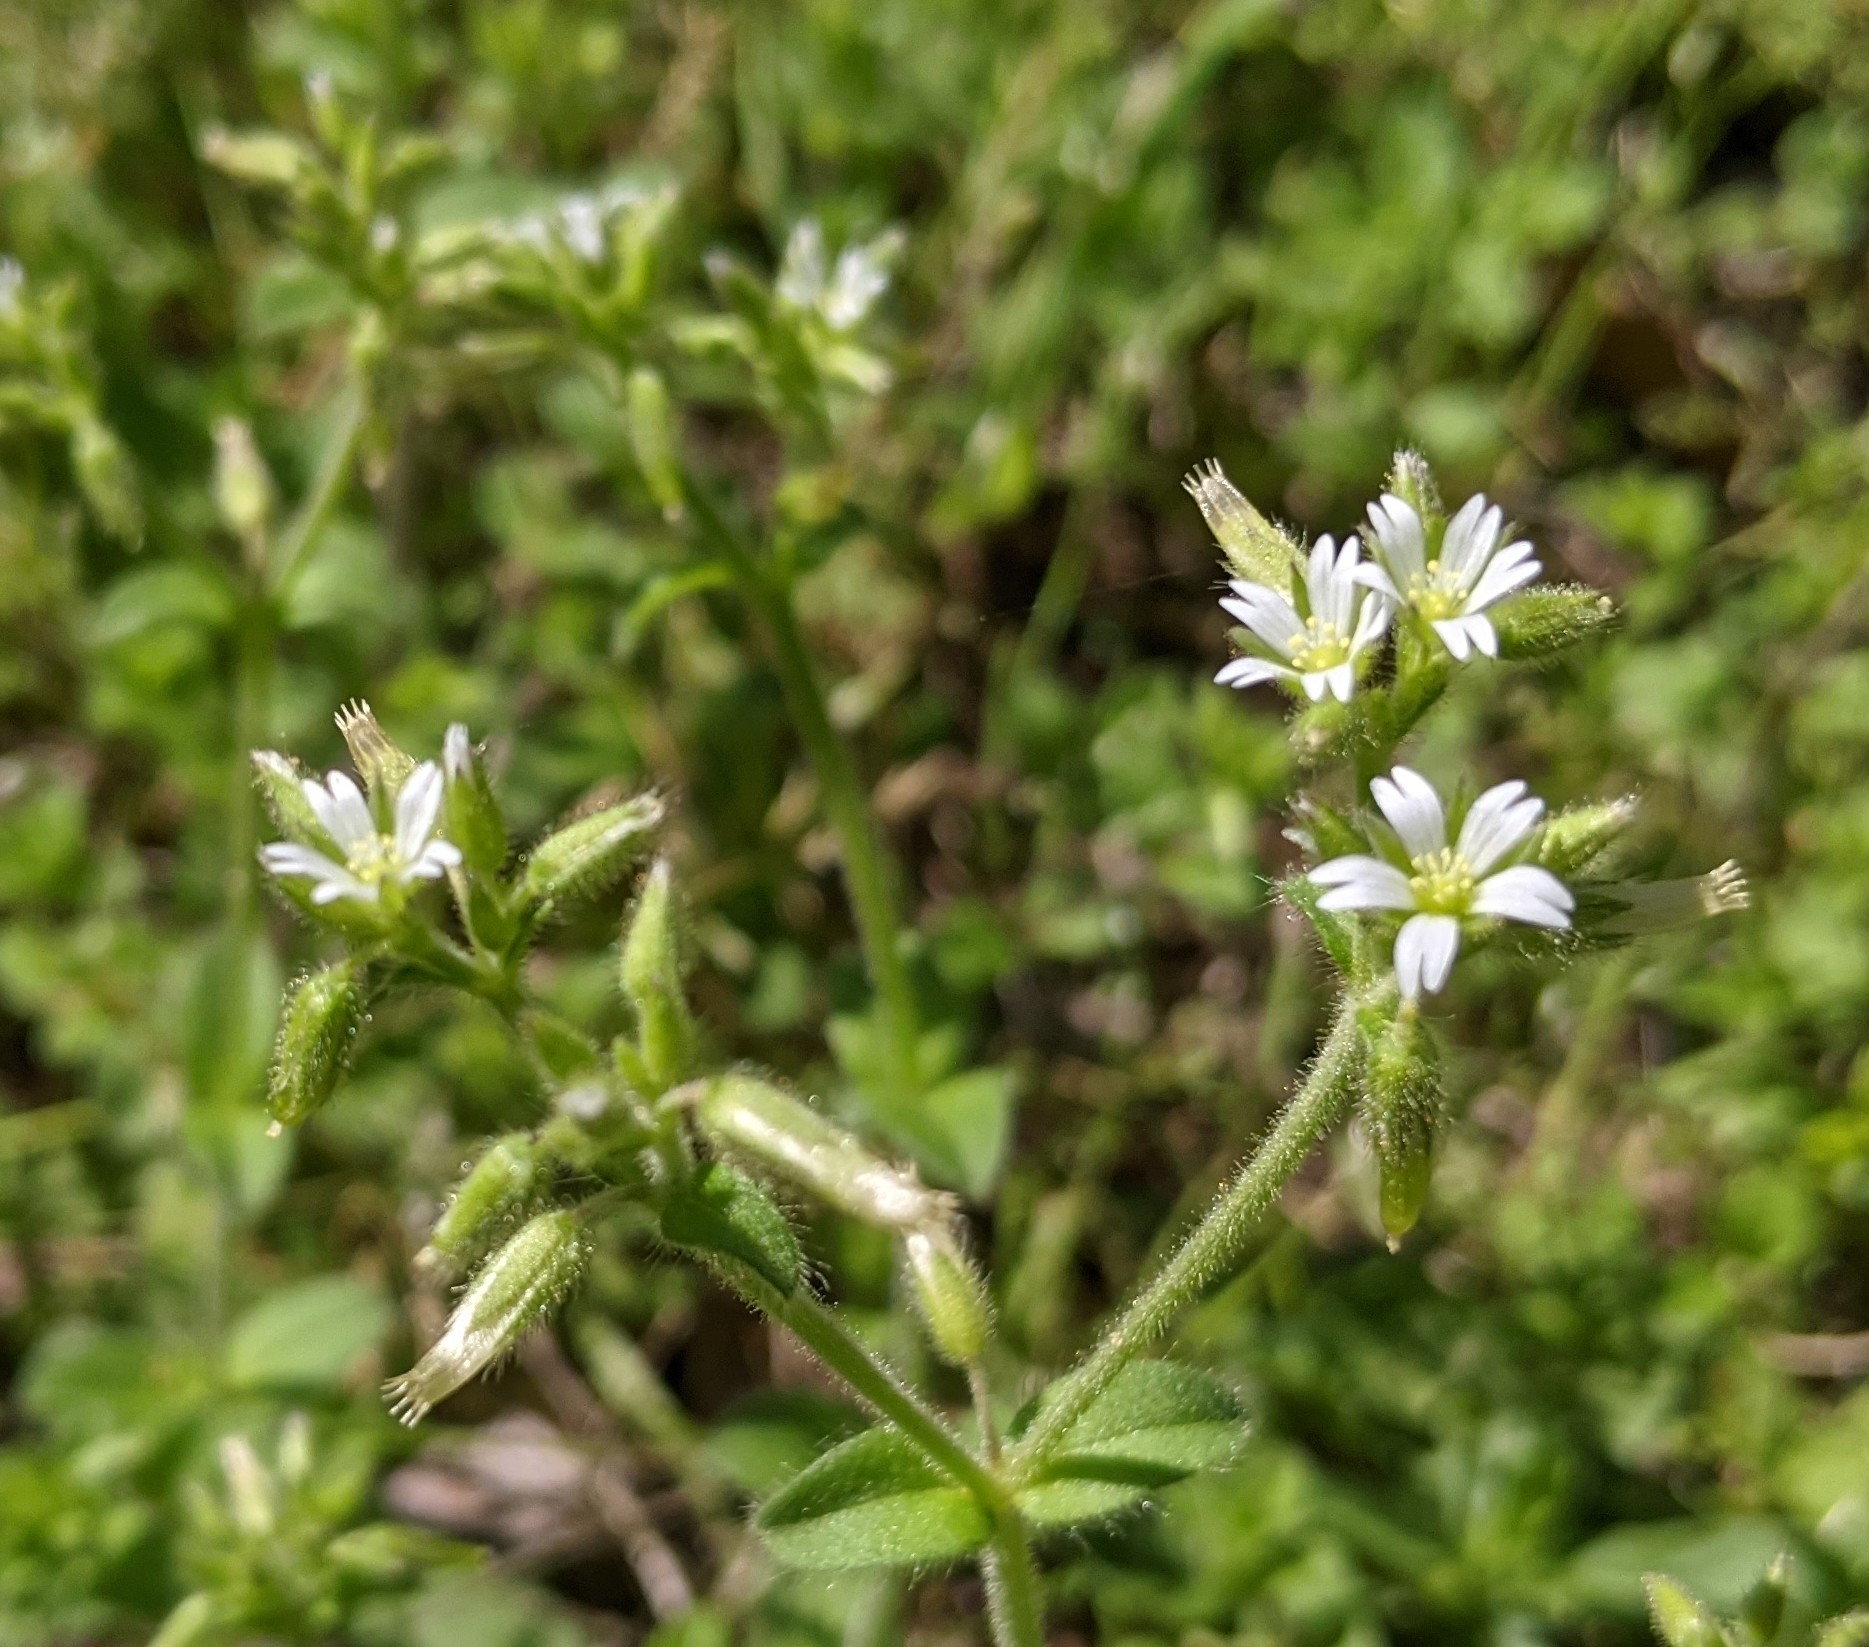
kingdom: Plantae
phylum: Tracheophyta
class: Magnoliopsida
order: Caryophyllales
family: Caryophyllaceae
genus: Cerastium
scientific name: Cerastium glomeratum
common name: Sticky chickweed
